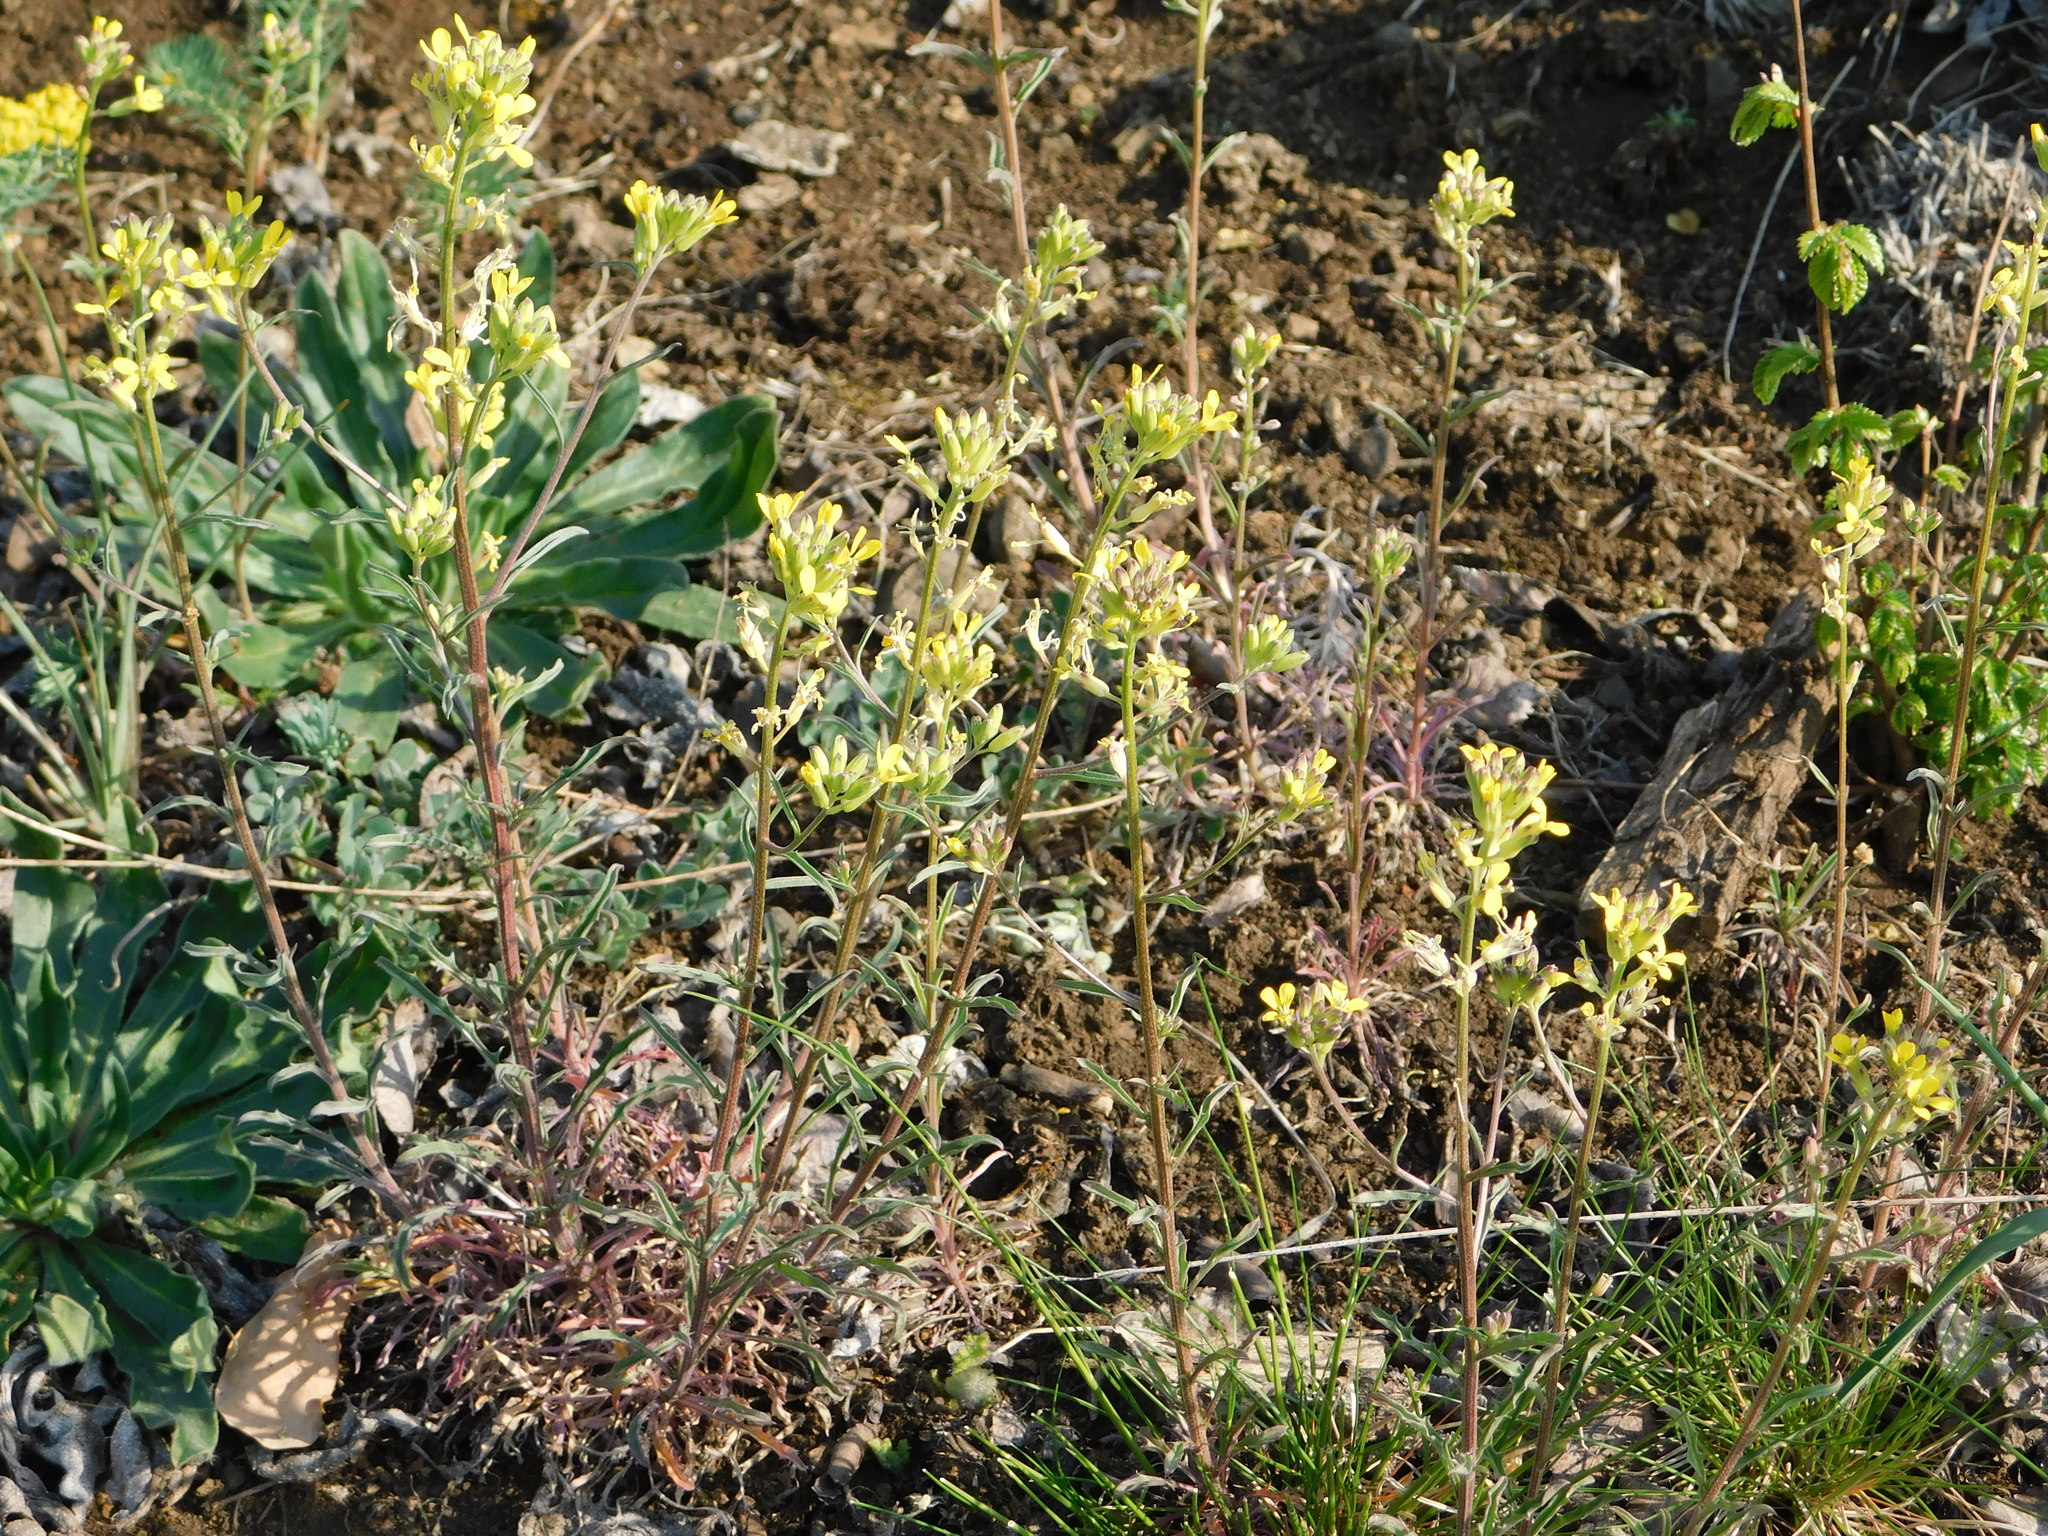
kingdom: Plantae
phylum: Tracheophyta
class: Magnoliopsida
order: Brassicales
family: Brassicaceae
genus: Erysimum
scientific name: Erysimum crepidifolium
